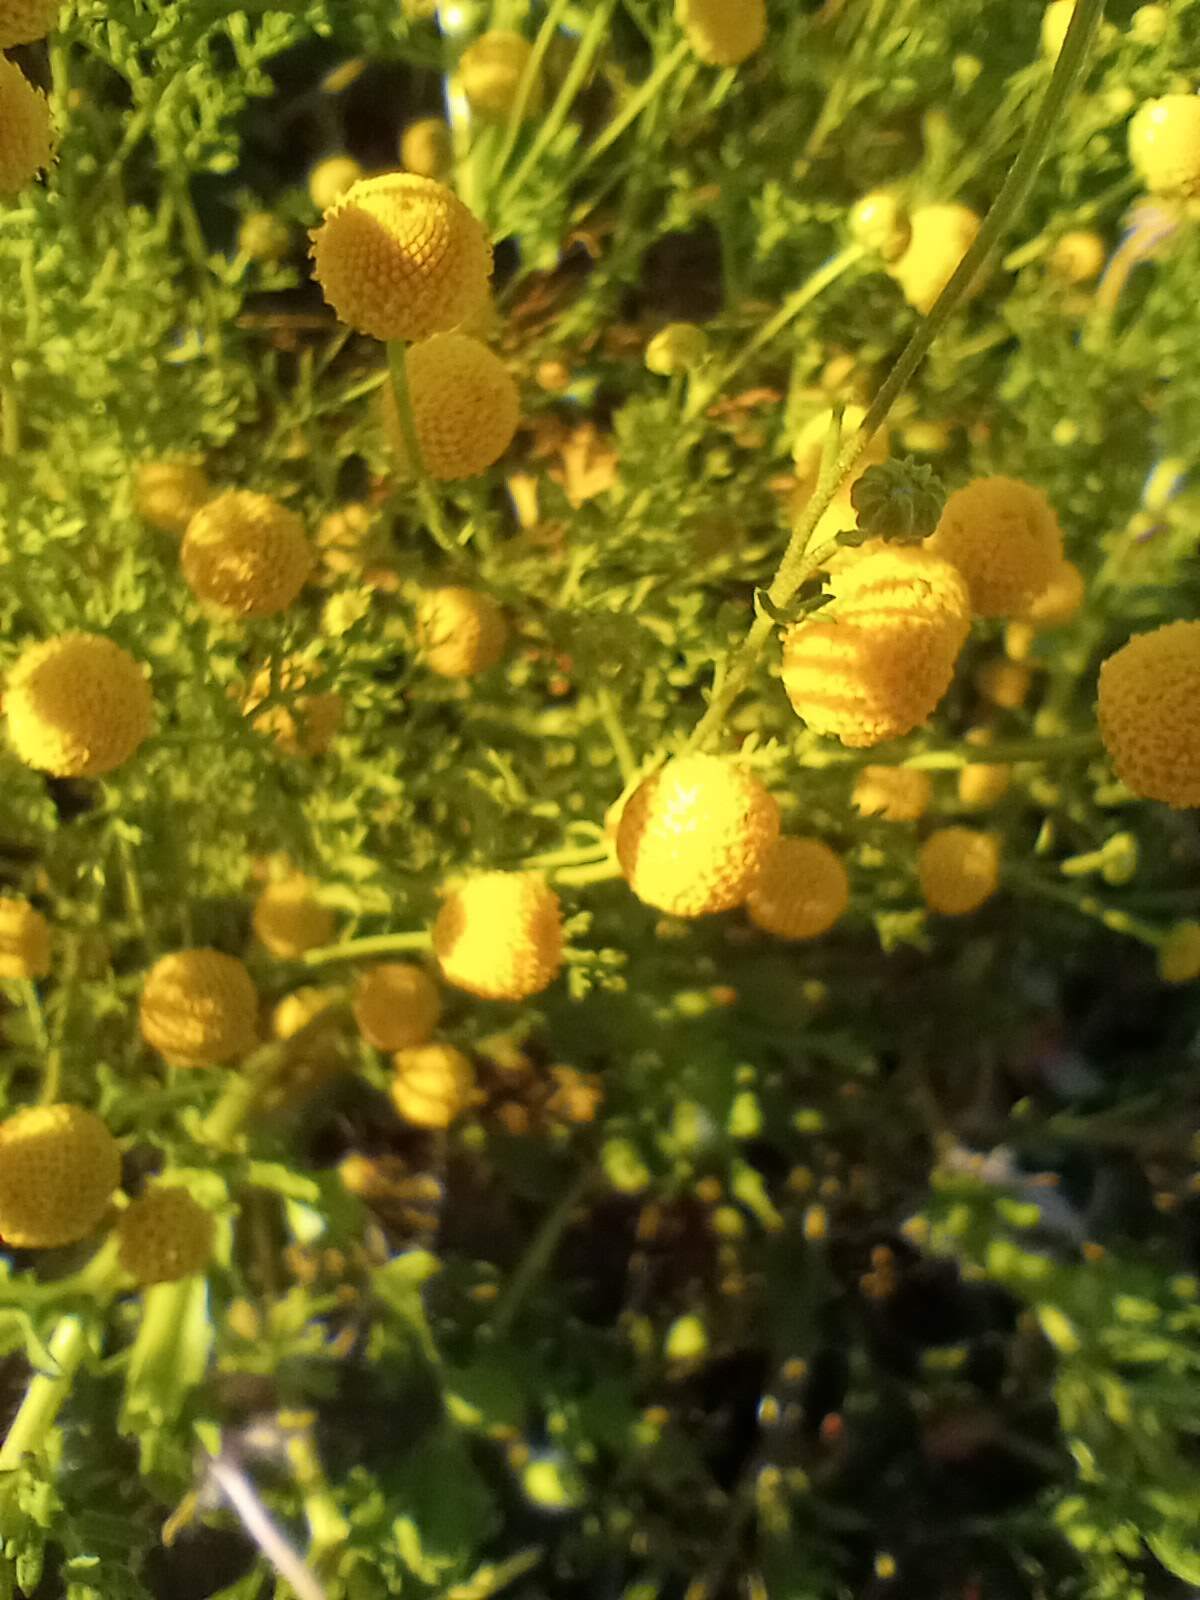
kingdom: Plantae
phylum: Tracheophyta
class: Magnoliopsida
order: Asterales
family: Asteraceae
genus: Oncosiphon
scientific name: Oncosiphon pilulifer
